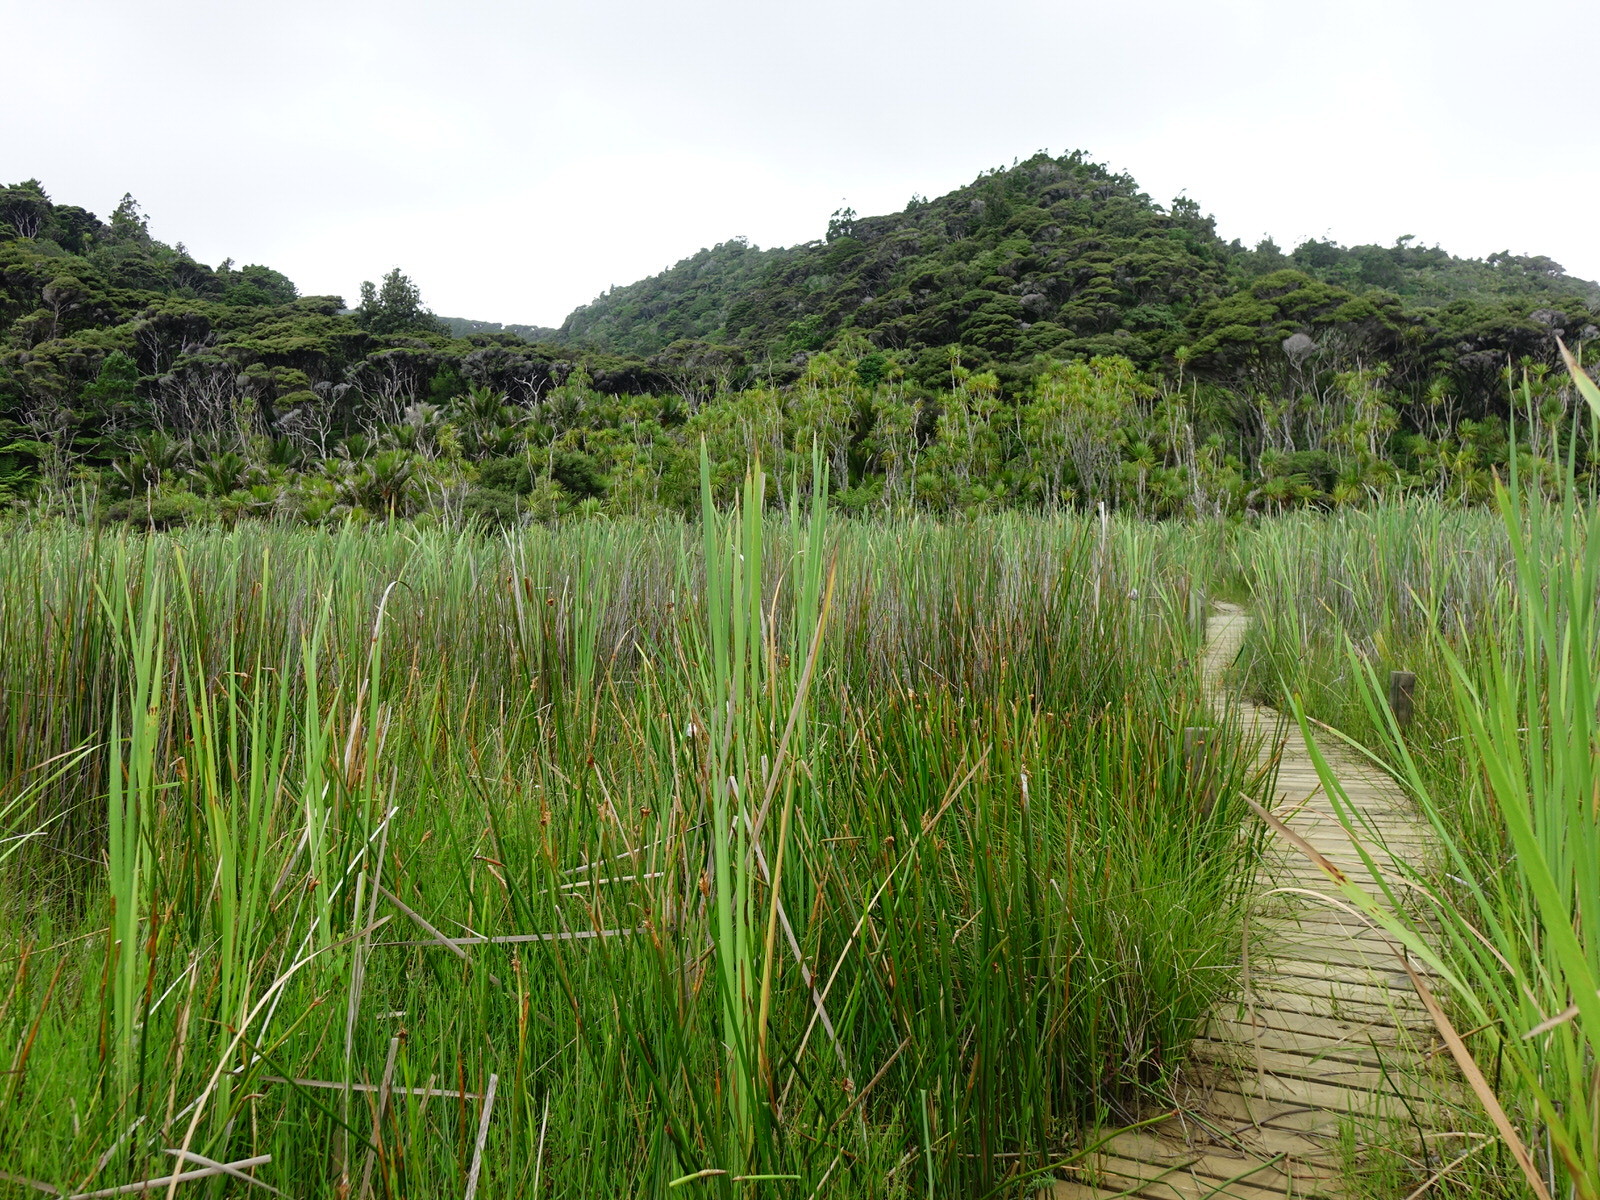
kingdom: Animalia
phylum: Arthropoda
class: Insecta
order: Hymenoptera
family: Eumenidae
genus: Polistes
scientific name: Polistes chinensis
